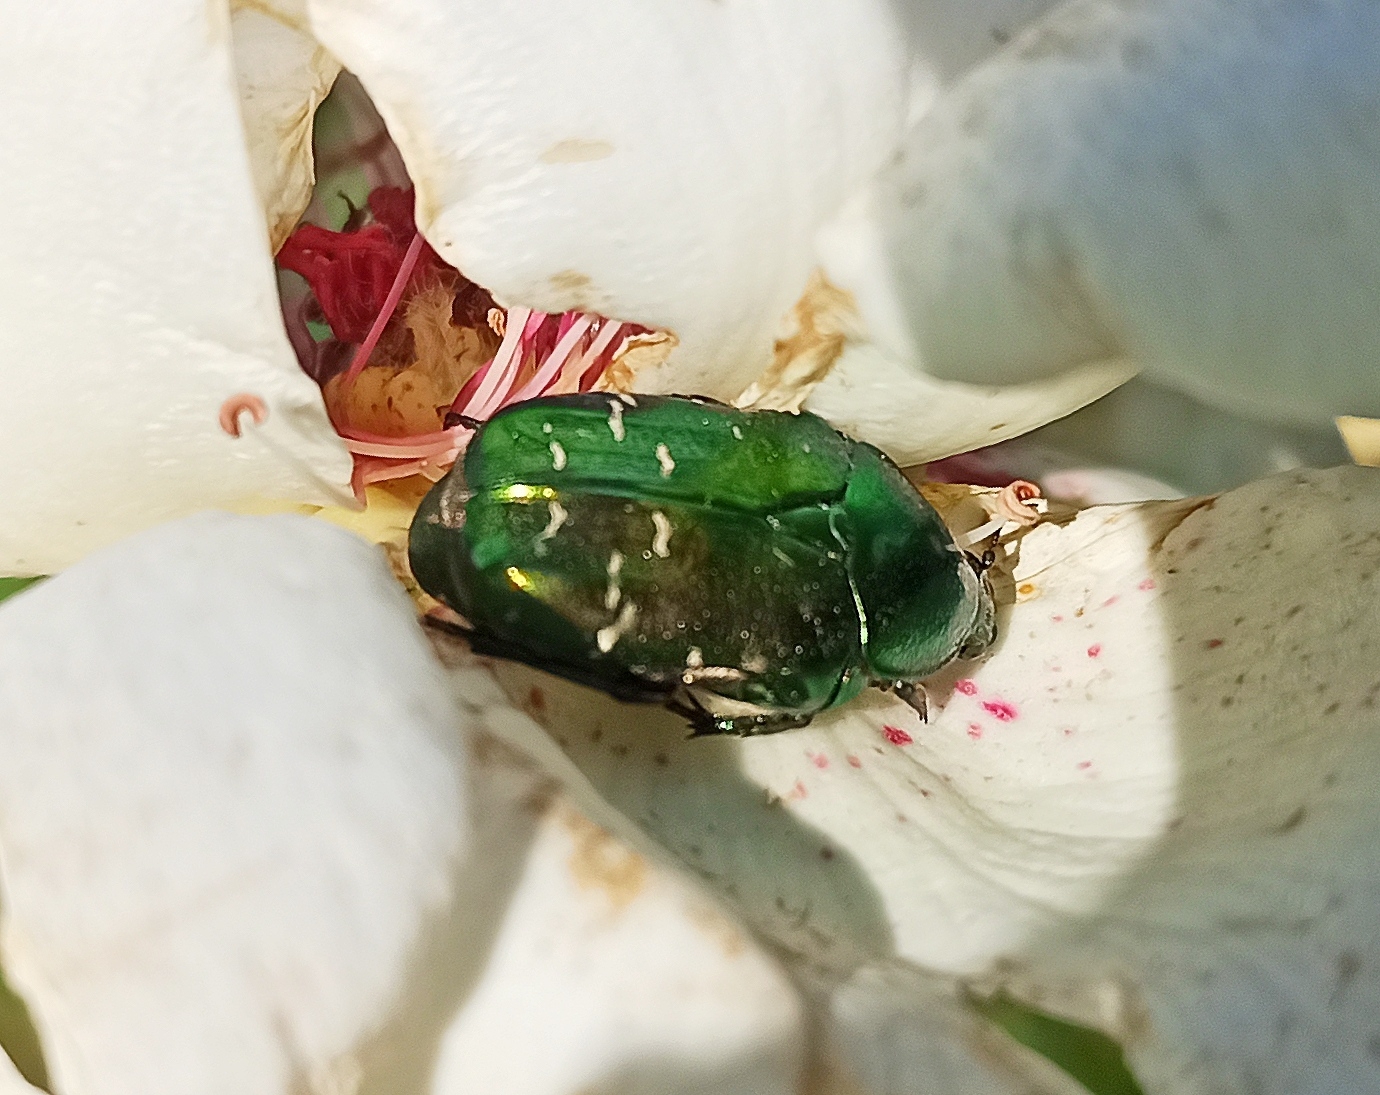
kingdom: Animalia
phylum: Arthropoda
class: Insecta
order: Coleoptera
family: Scarabaeidae
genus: Cetonia
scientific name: Cetonia aurata
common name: Rose chafer
